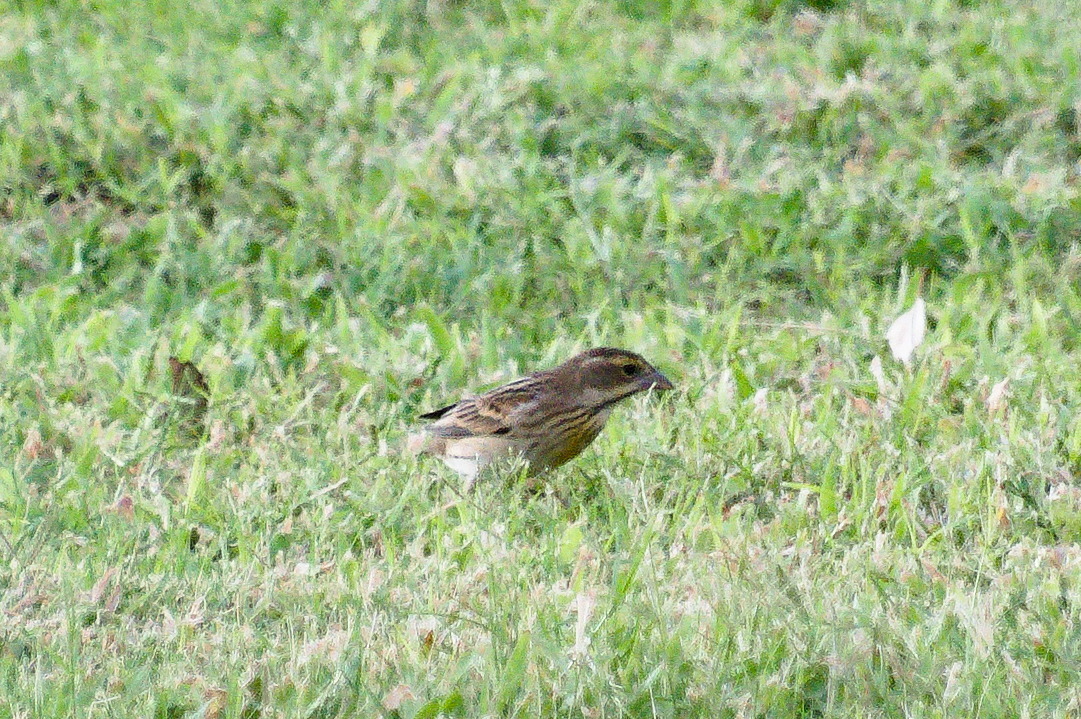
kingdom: Animalia
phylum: Chordata
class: Aves
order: Passeriformes
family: Cardinalidae
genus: Spiza
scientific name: Spiza americana
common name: Dickcissel
